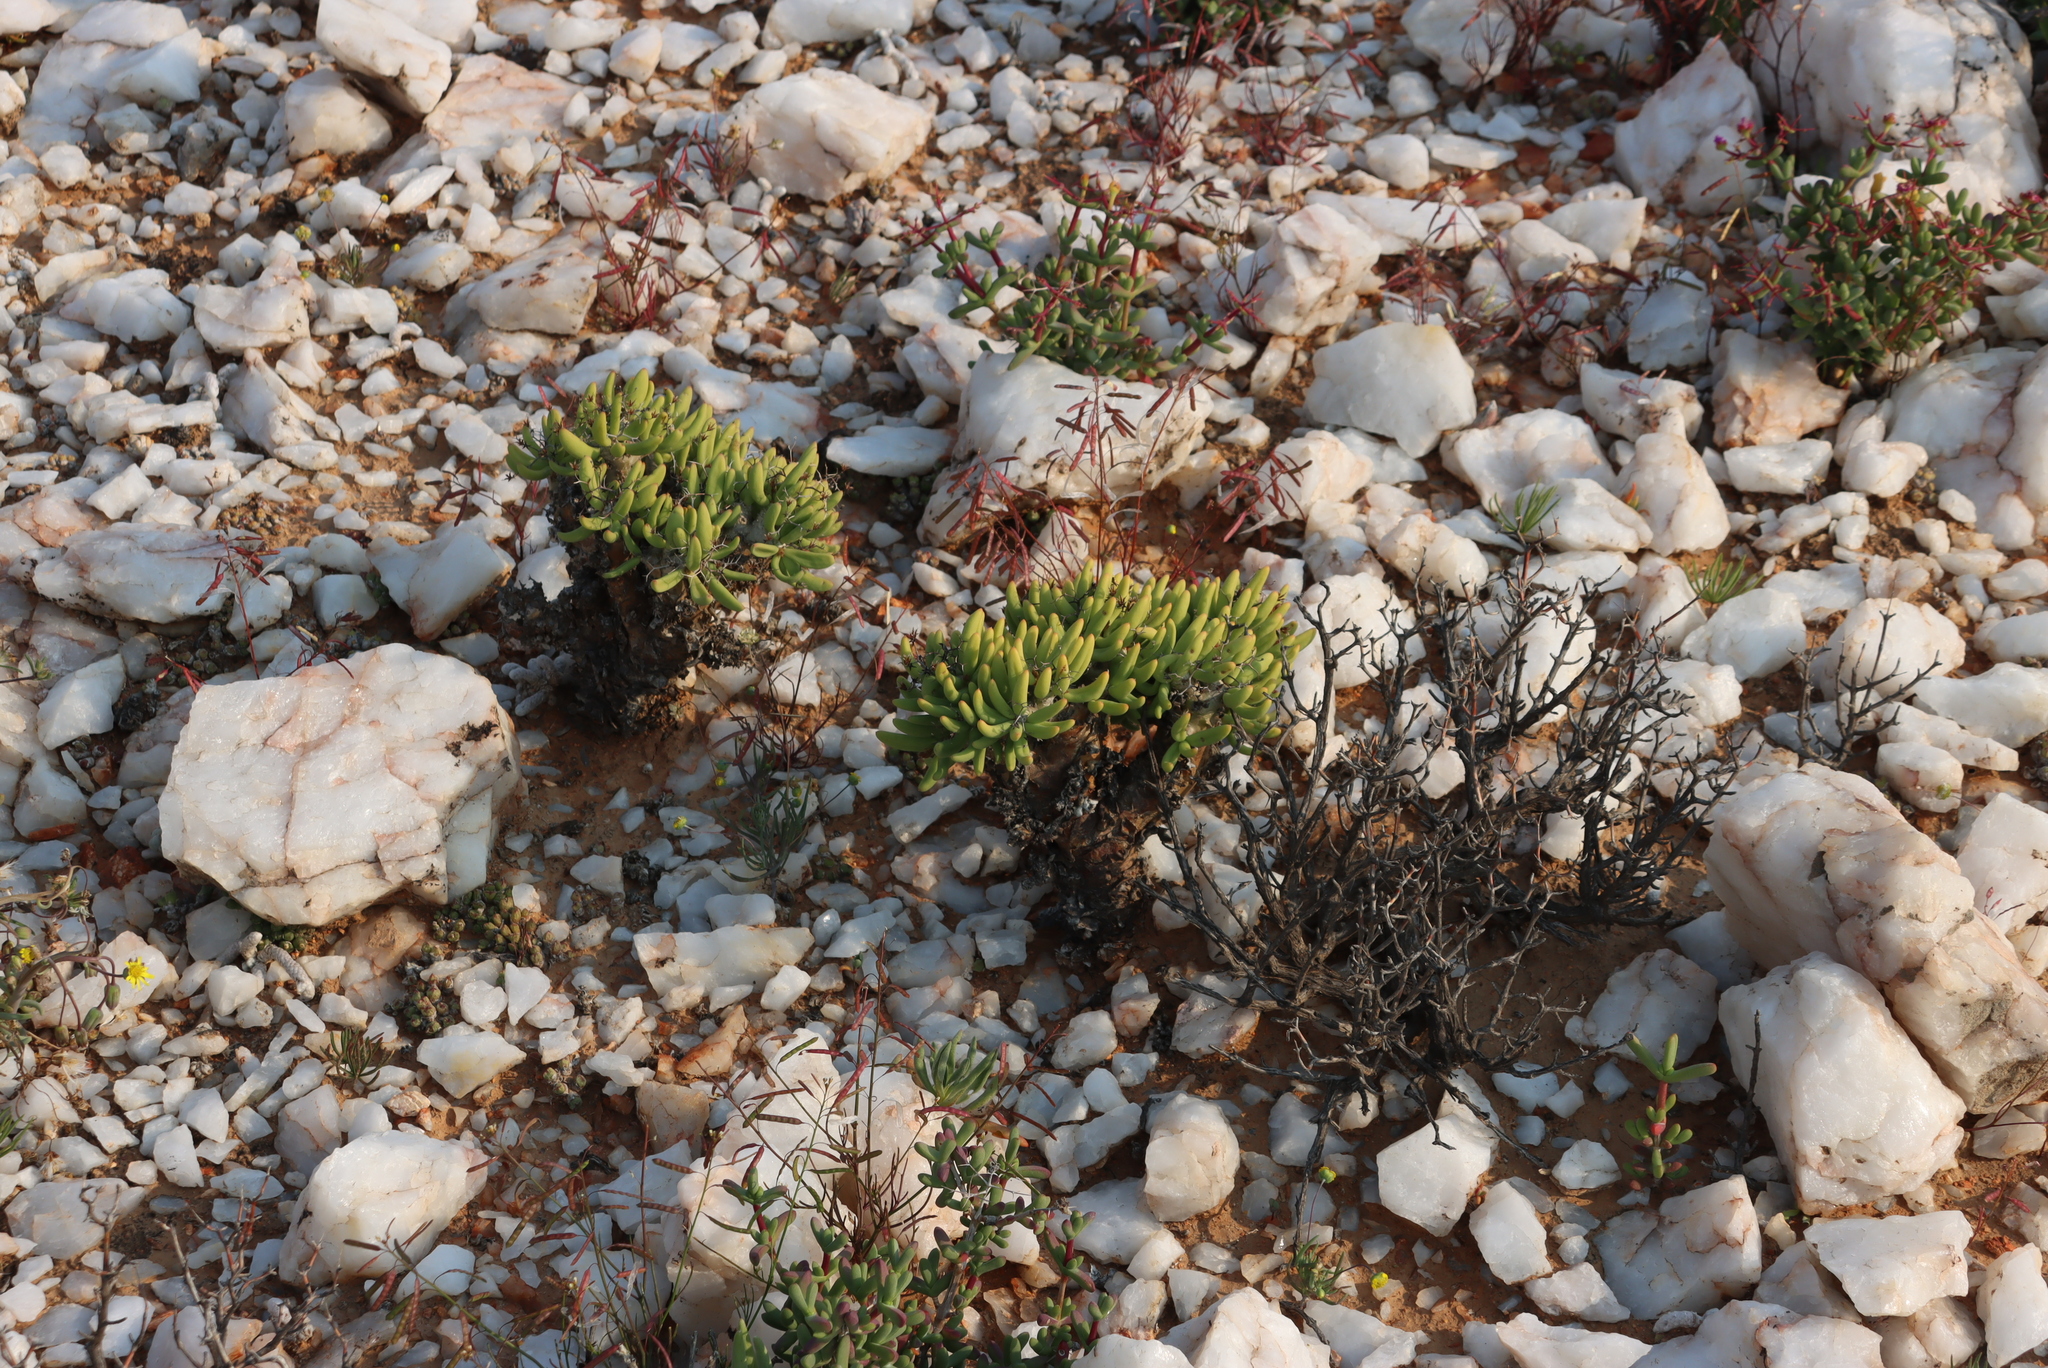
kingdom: Plantae
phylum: Tracheophyta
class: Magnoliopsida
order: Saxifragales
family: Crassulaceae
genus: Tylecodon
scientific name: Tylecodon reticulatus
